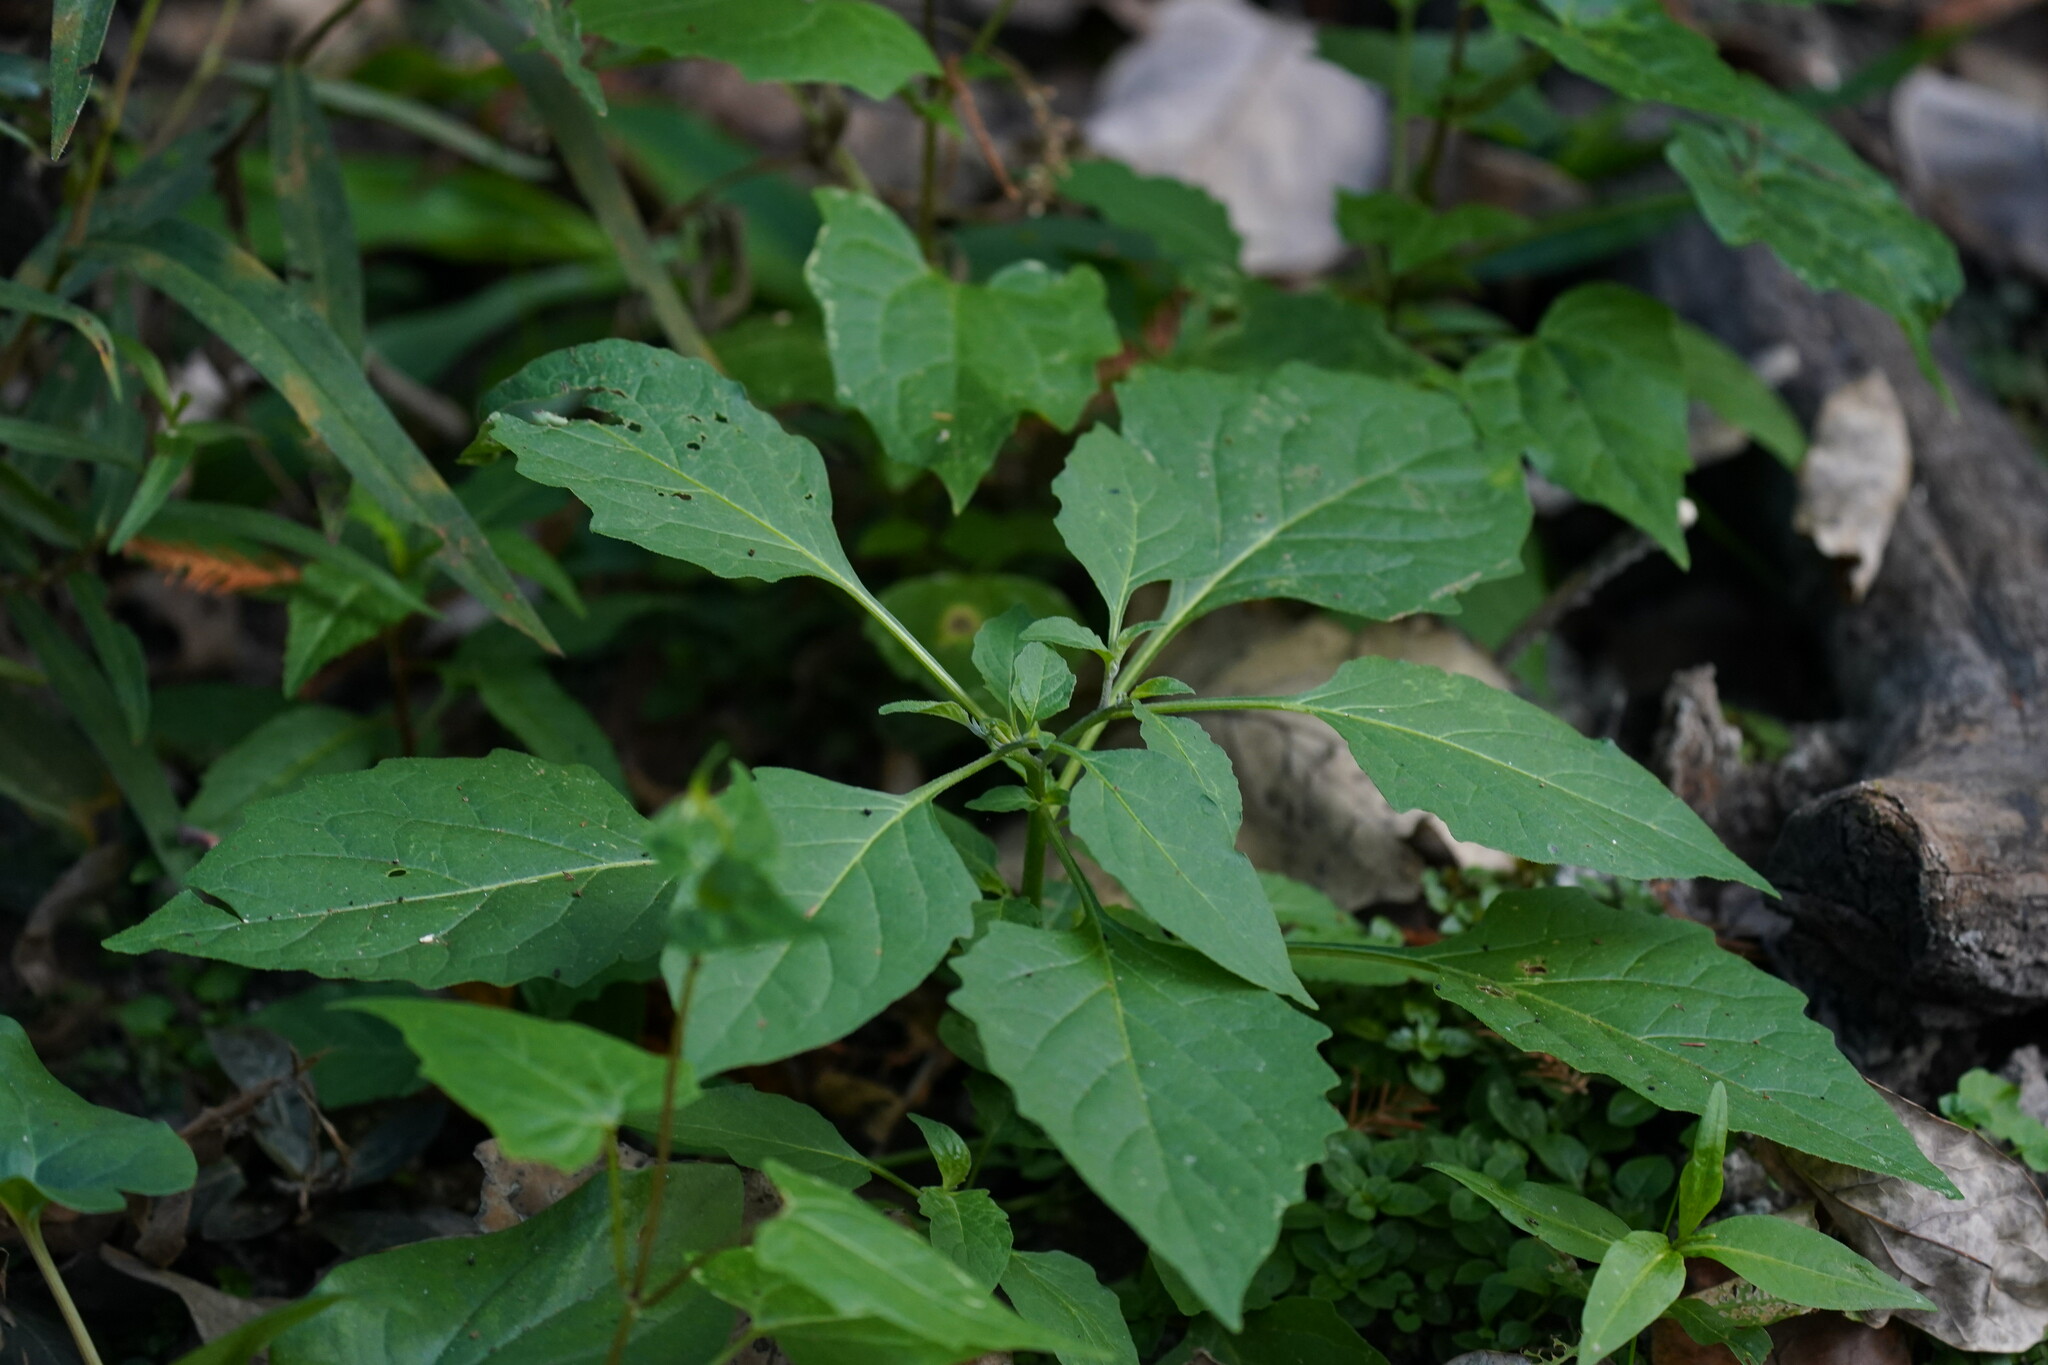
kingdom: Plantae
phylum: Tracheophyta
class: Magnoliopsida
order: Solanales
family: Solanaceae
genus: Solanum
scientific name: Solanum emulans
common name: Eastern black nightshade
